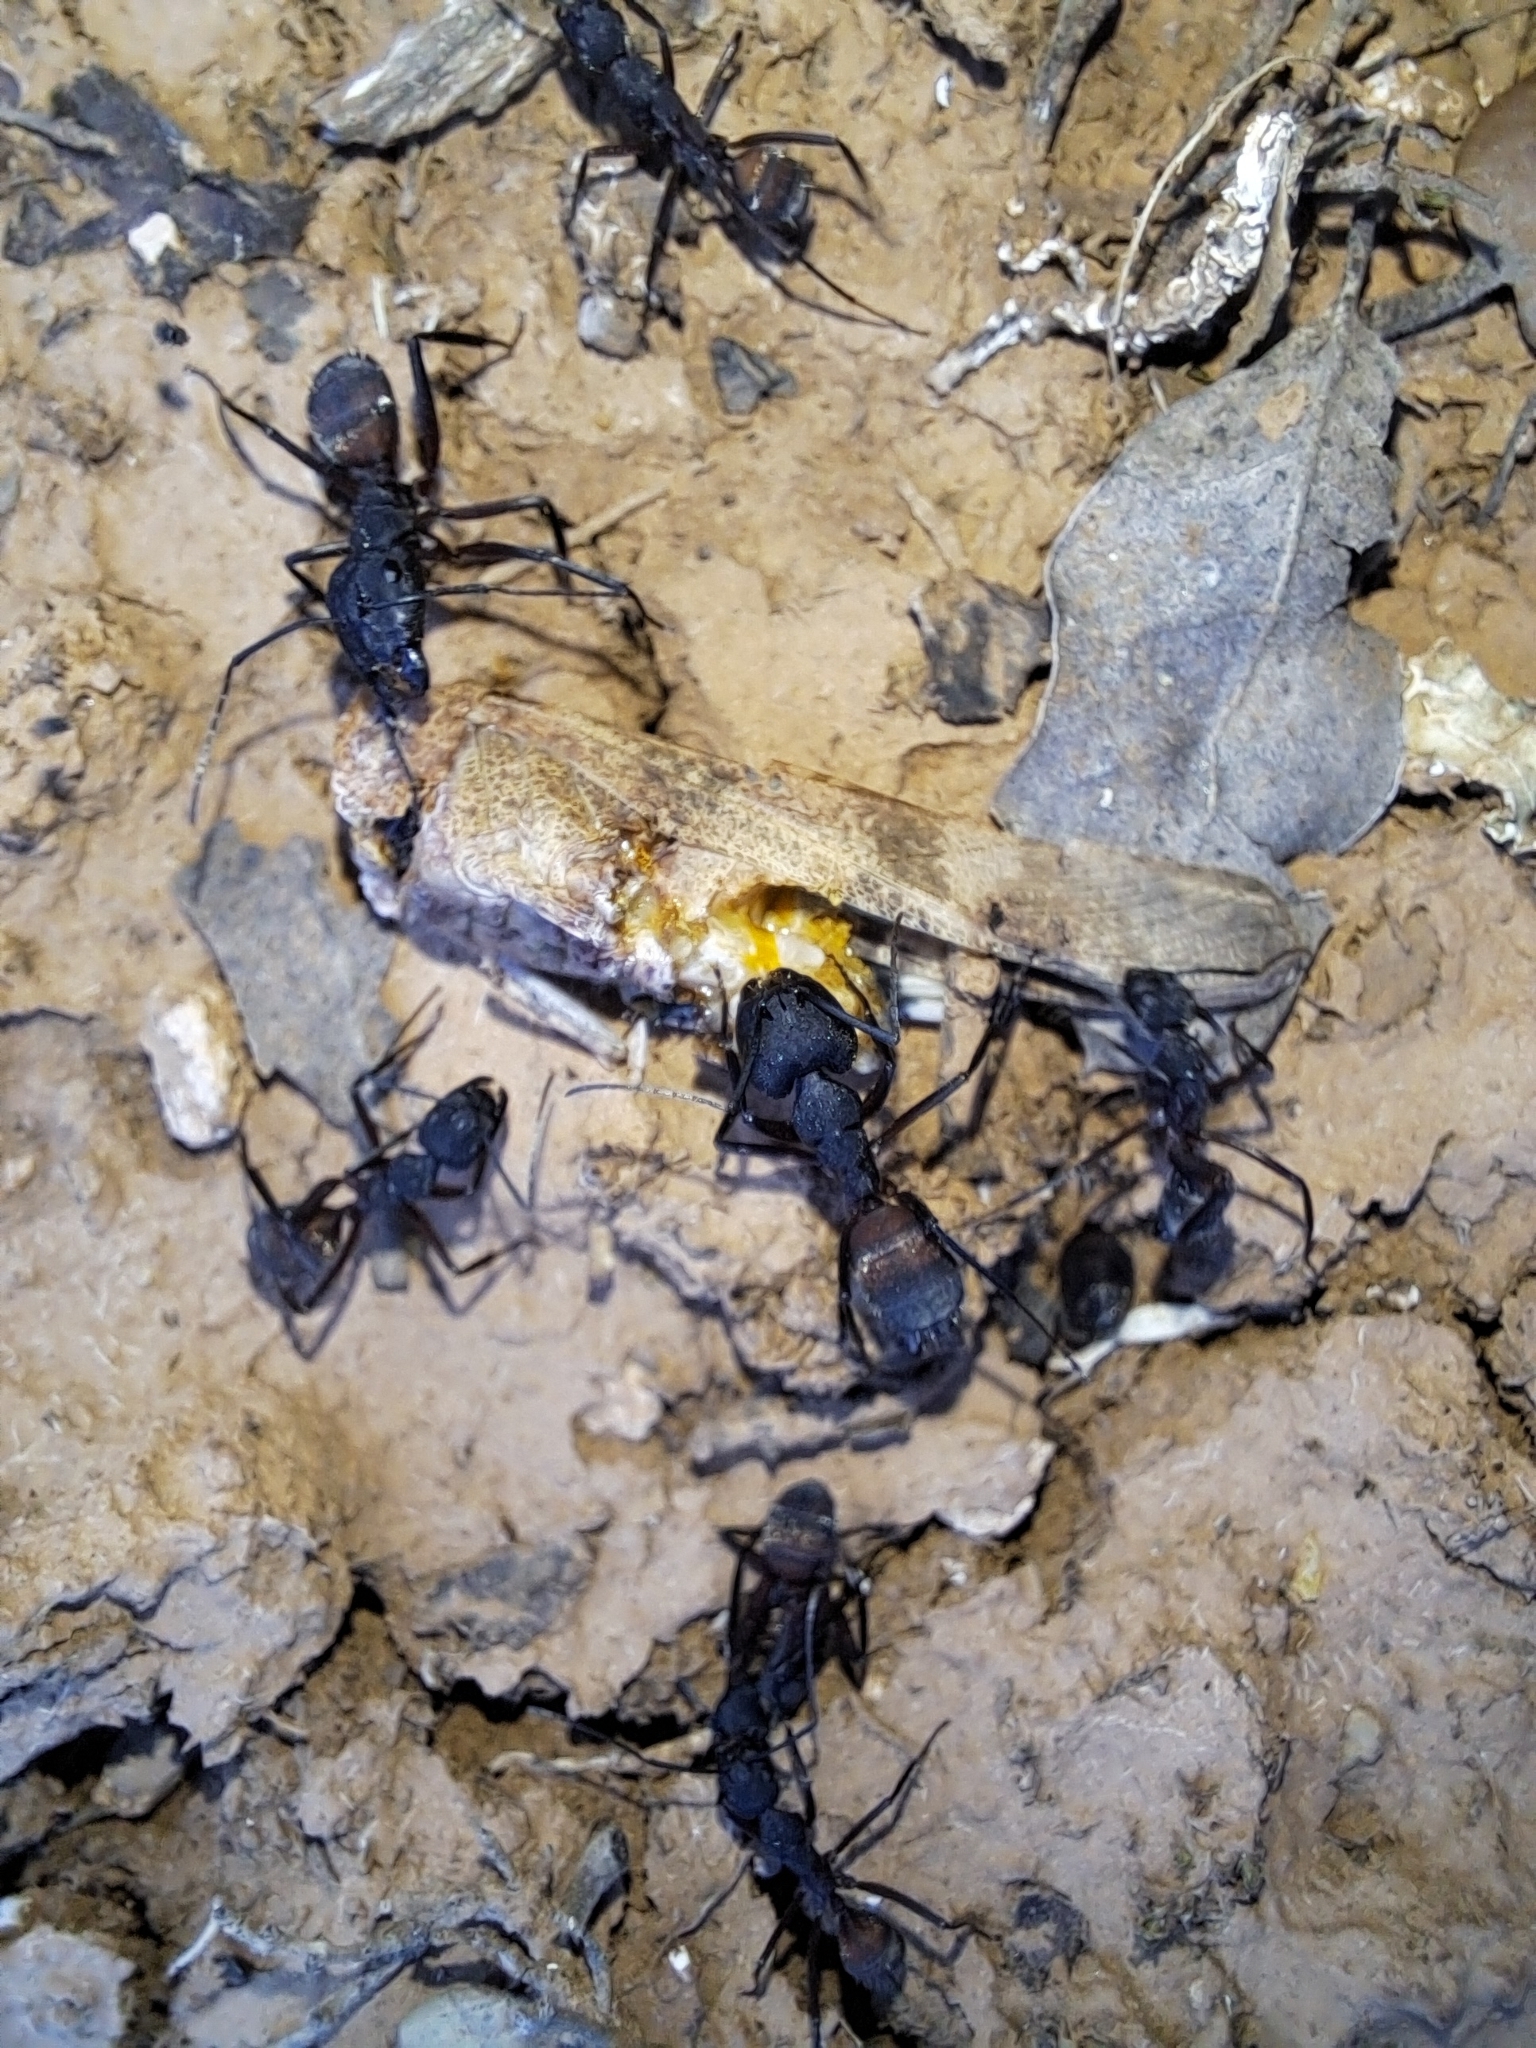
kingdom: Animalia
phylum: Arthropoda
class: Insecta
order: Hymenoptera
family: Formicidae
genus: Camponotus
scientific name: Camponotus cruentatus
